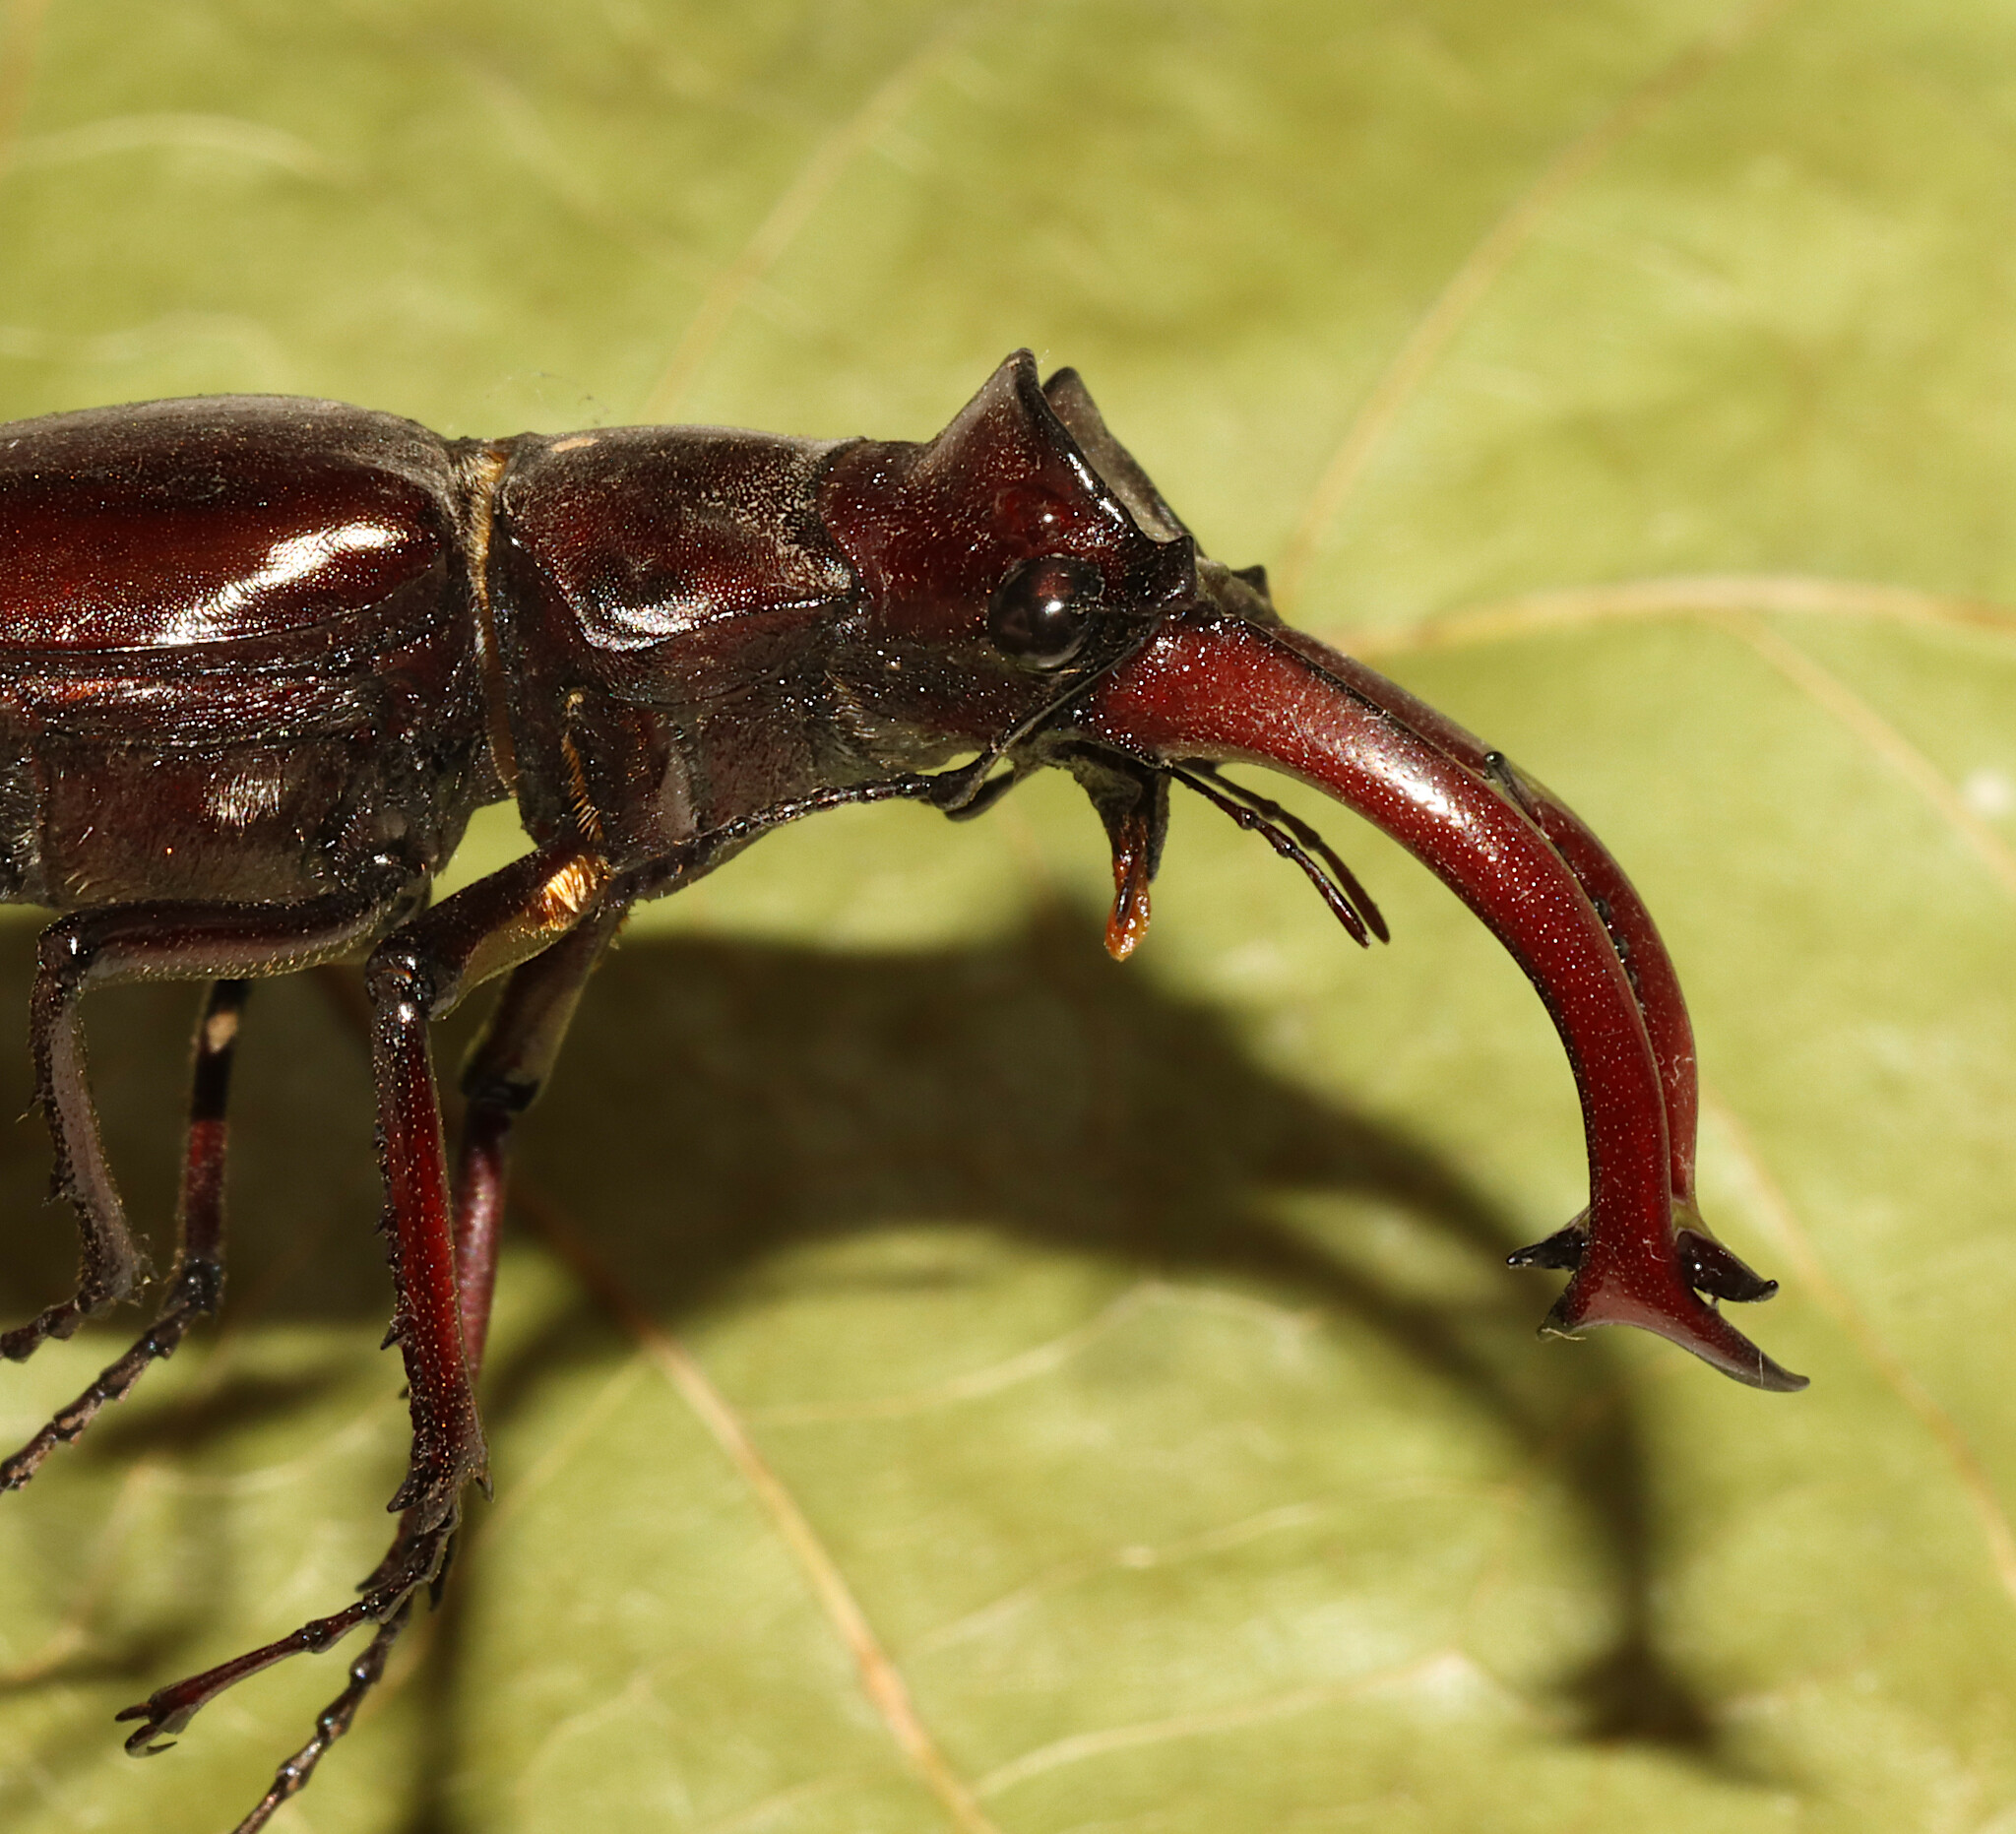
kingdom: Animalia
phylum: Arthropoda
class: Insecta
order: Coleoptera
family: Lucanidae
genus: Lucanus
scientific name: Lucanus elaphus
